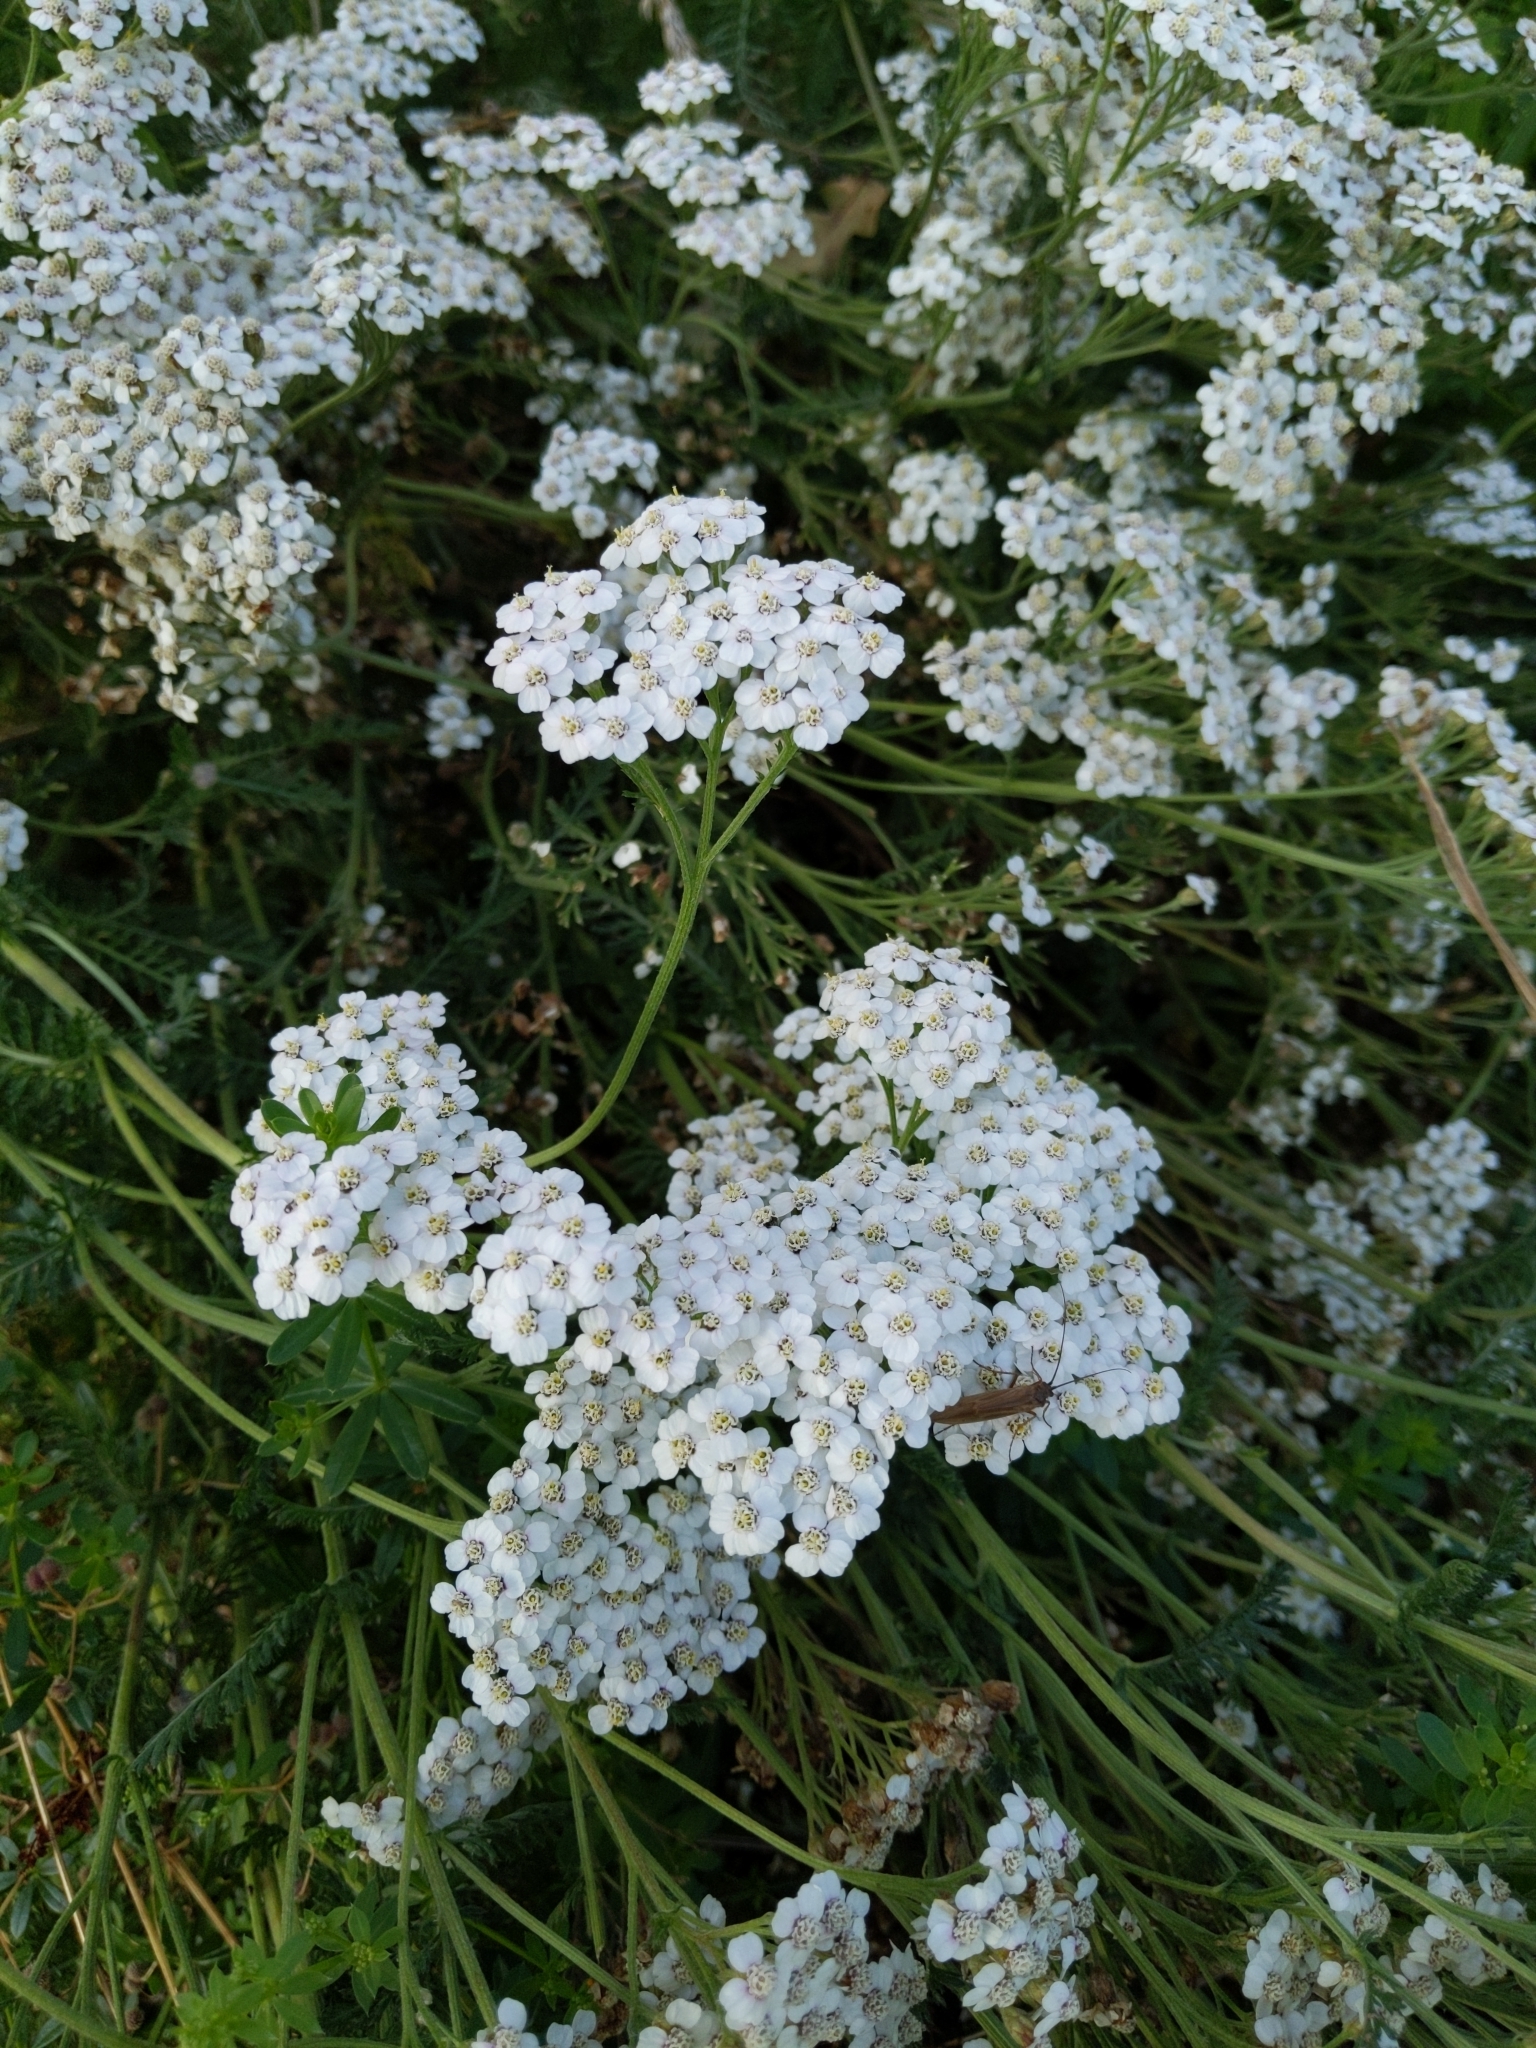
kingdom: Plantae
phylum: Tracheophyta
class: Magnoliopsida
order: Asterales
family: Asteraceae
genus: Achillea
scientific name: Achillea millefolium
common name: Yarrow
